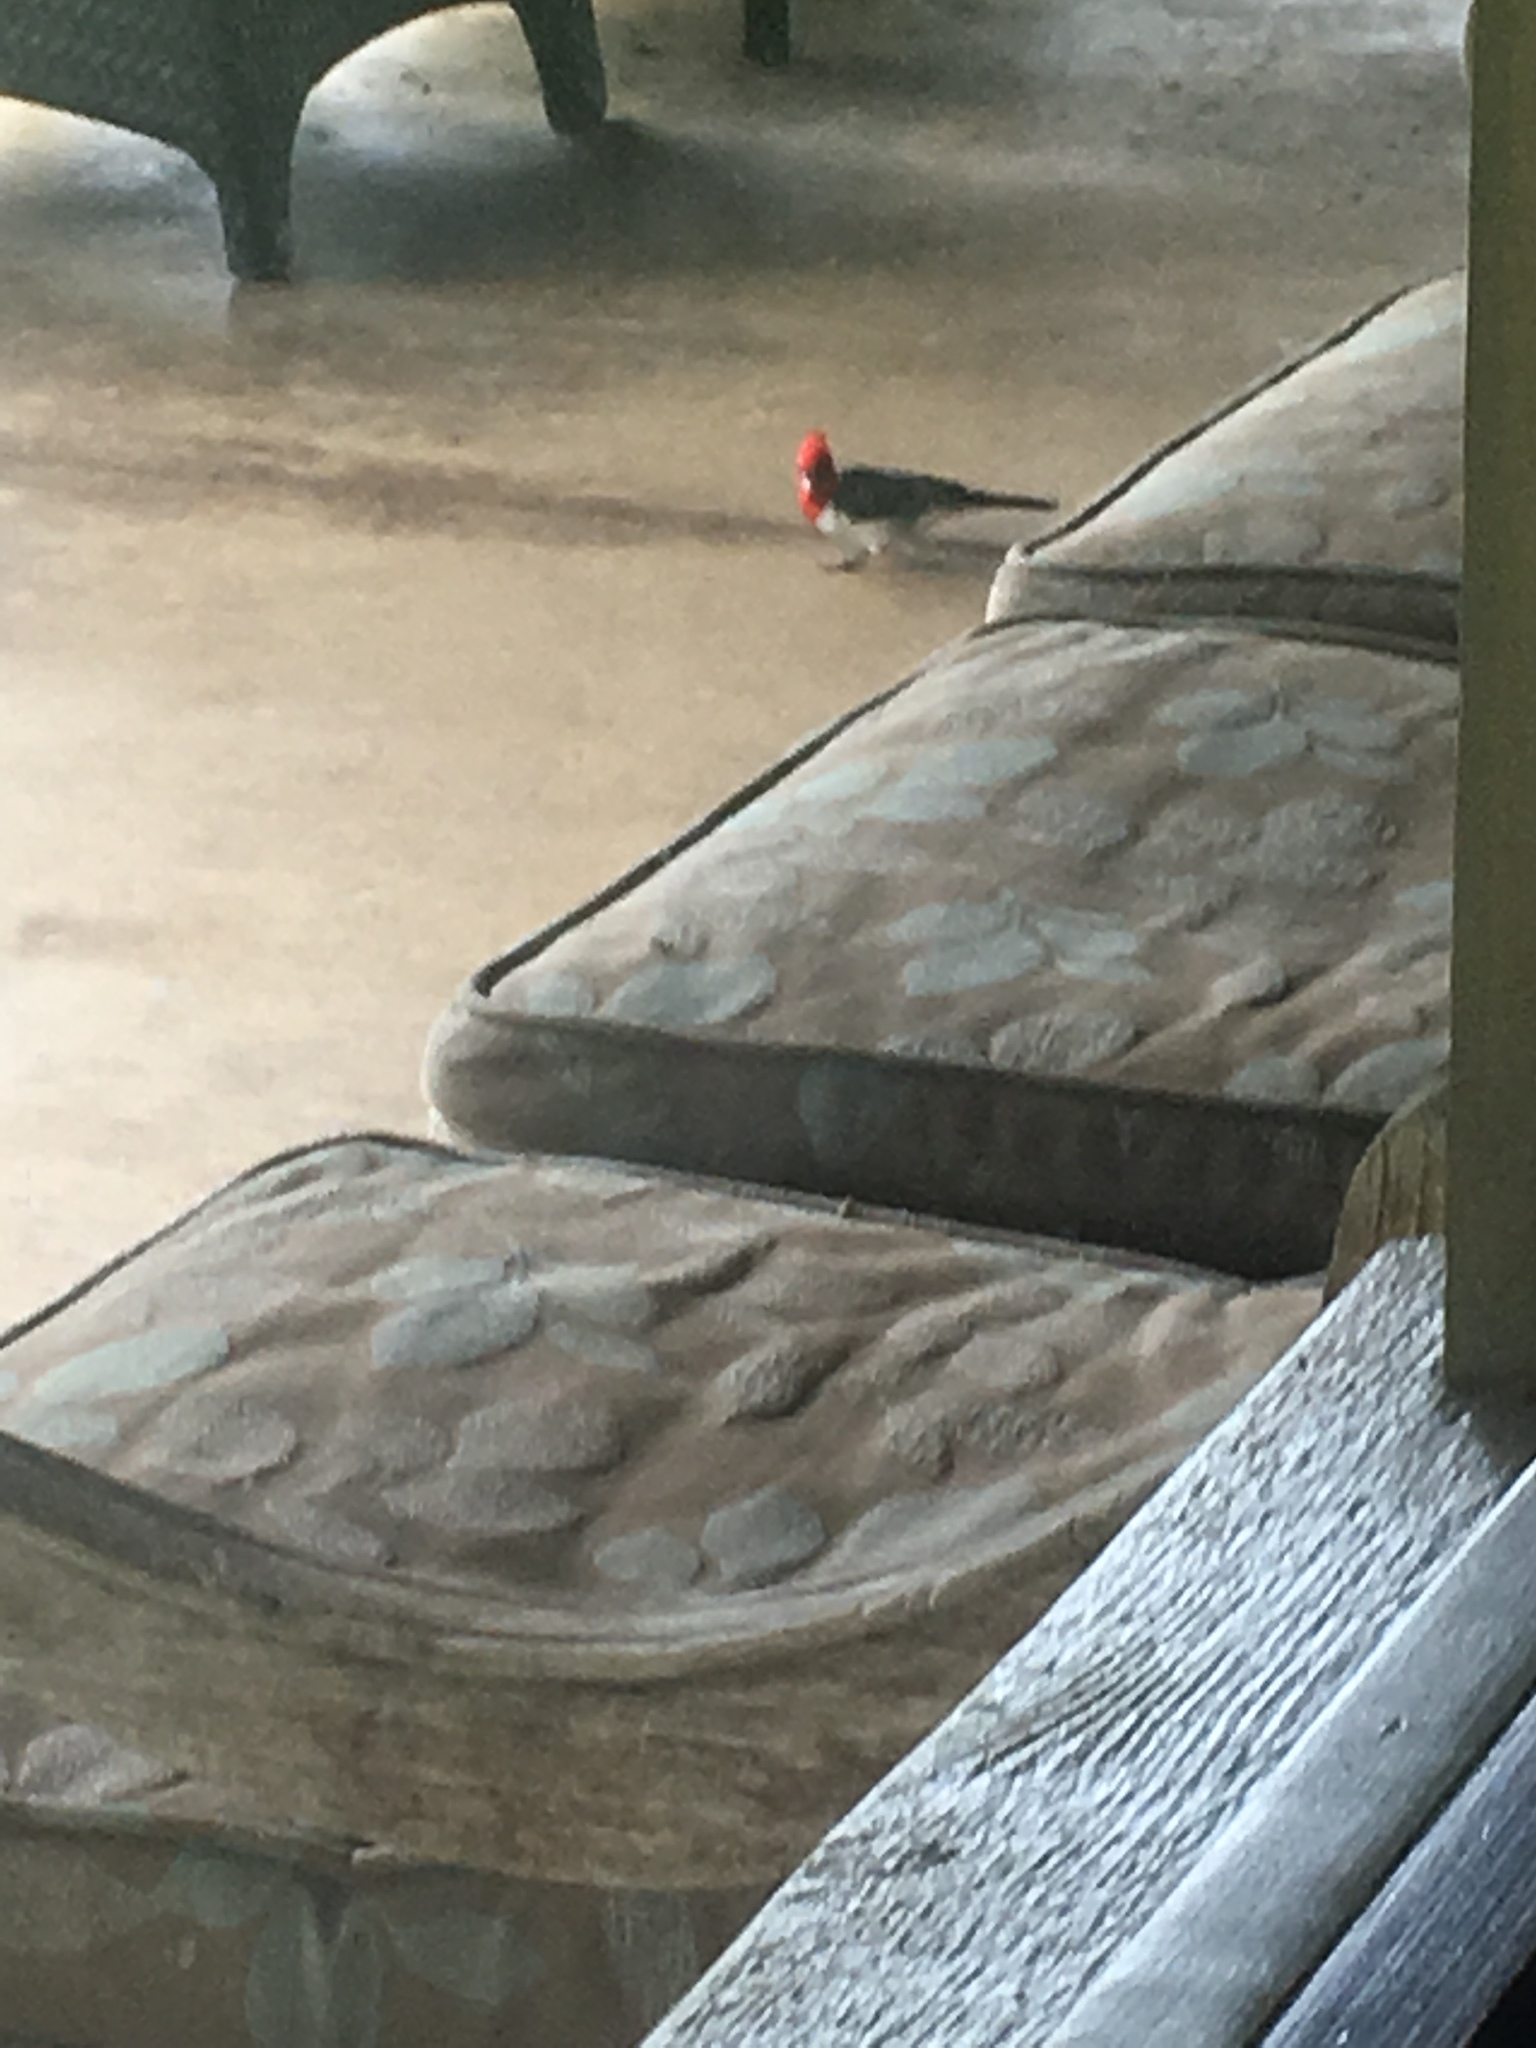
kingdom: Animalia
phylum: Chordata
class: Aves
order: Passeriformes
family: Thraupidae
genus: Paroaria
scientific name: Paroaria coronata
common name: Red-crested cardinal
